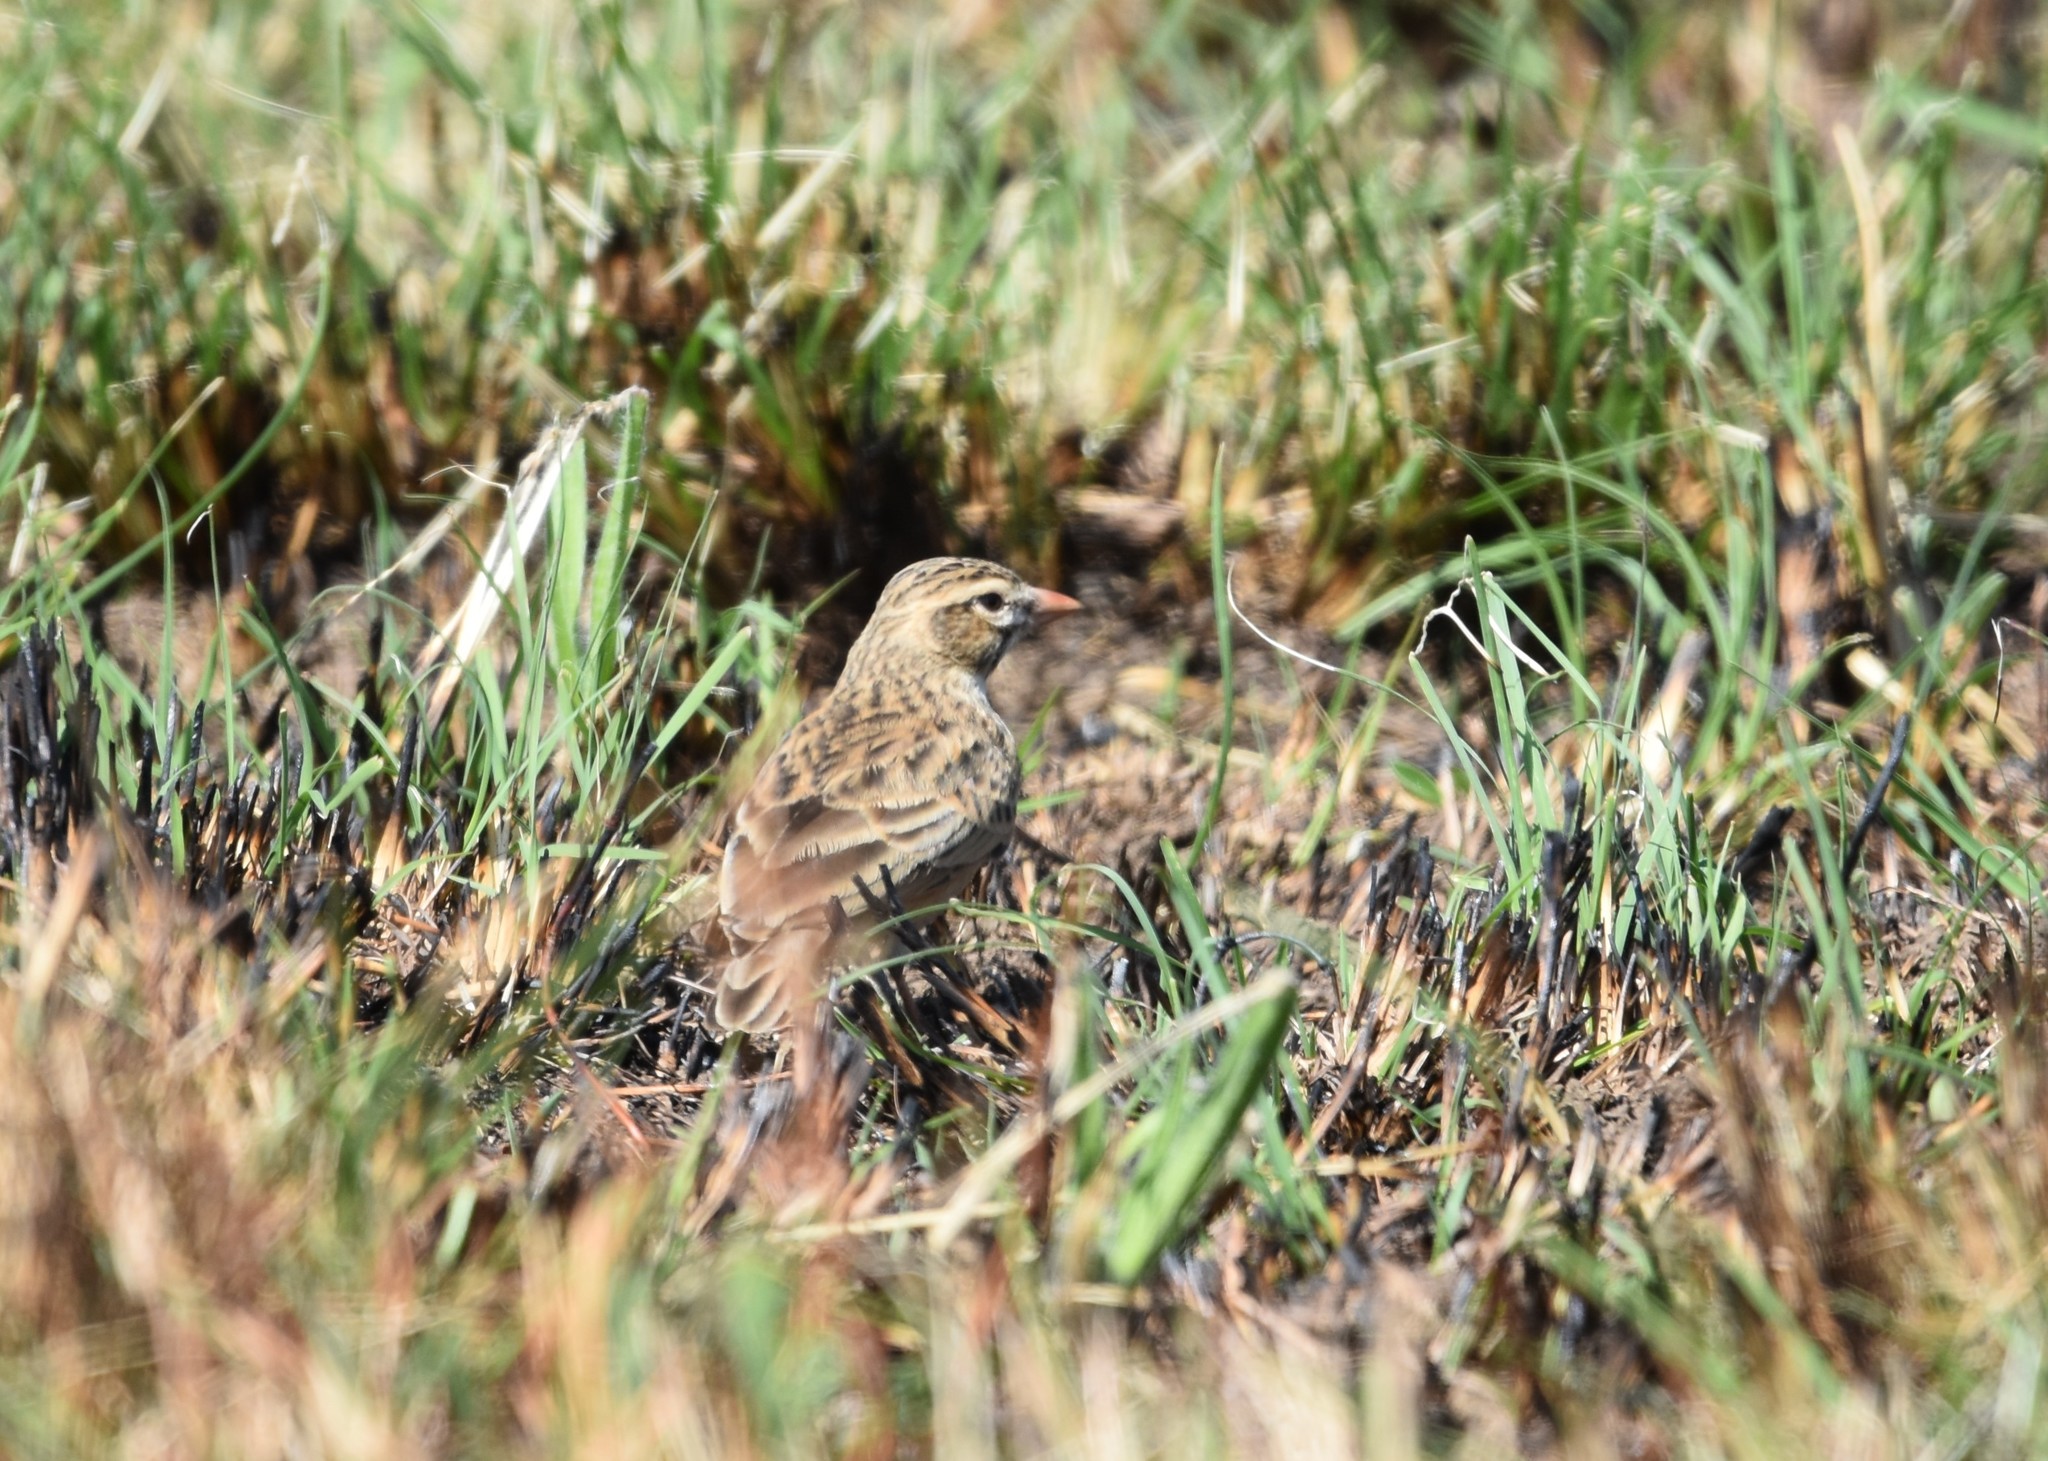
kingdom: Animalia
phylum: Chordata
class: Aves
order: Passeriformes
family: Alaudidae
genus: Spizocorys
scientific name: Spizocorys conirostris
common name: Pink-billed lark
